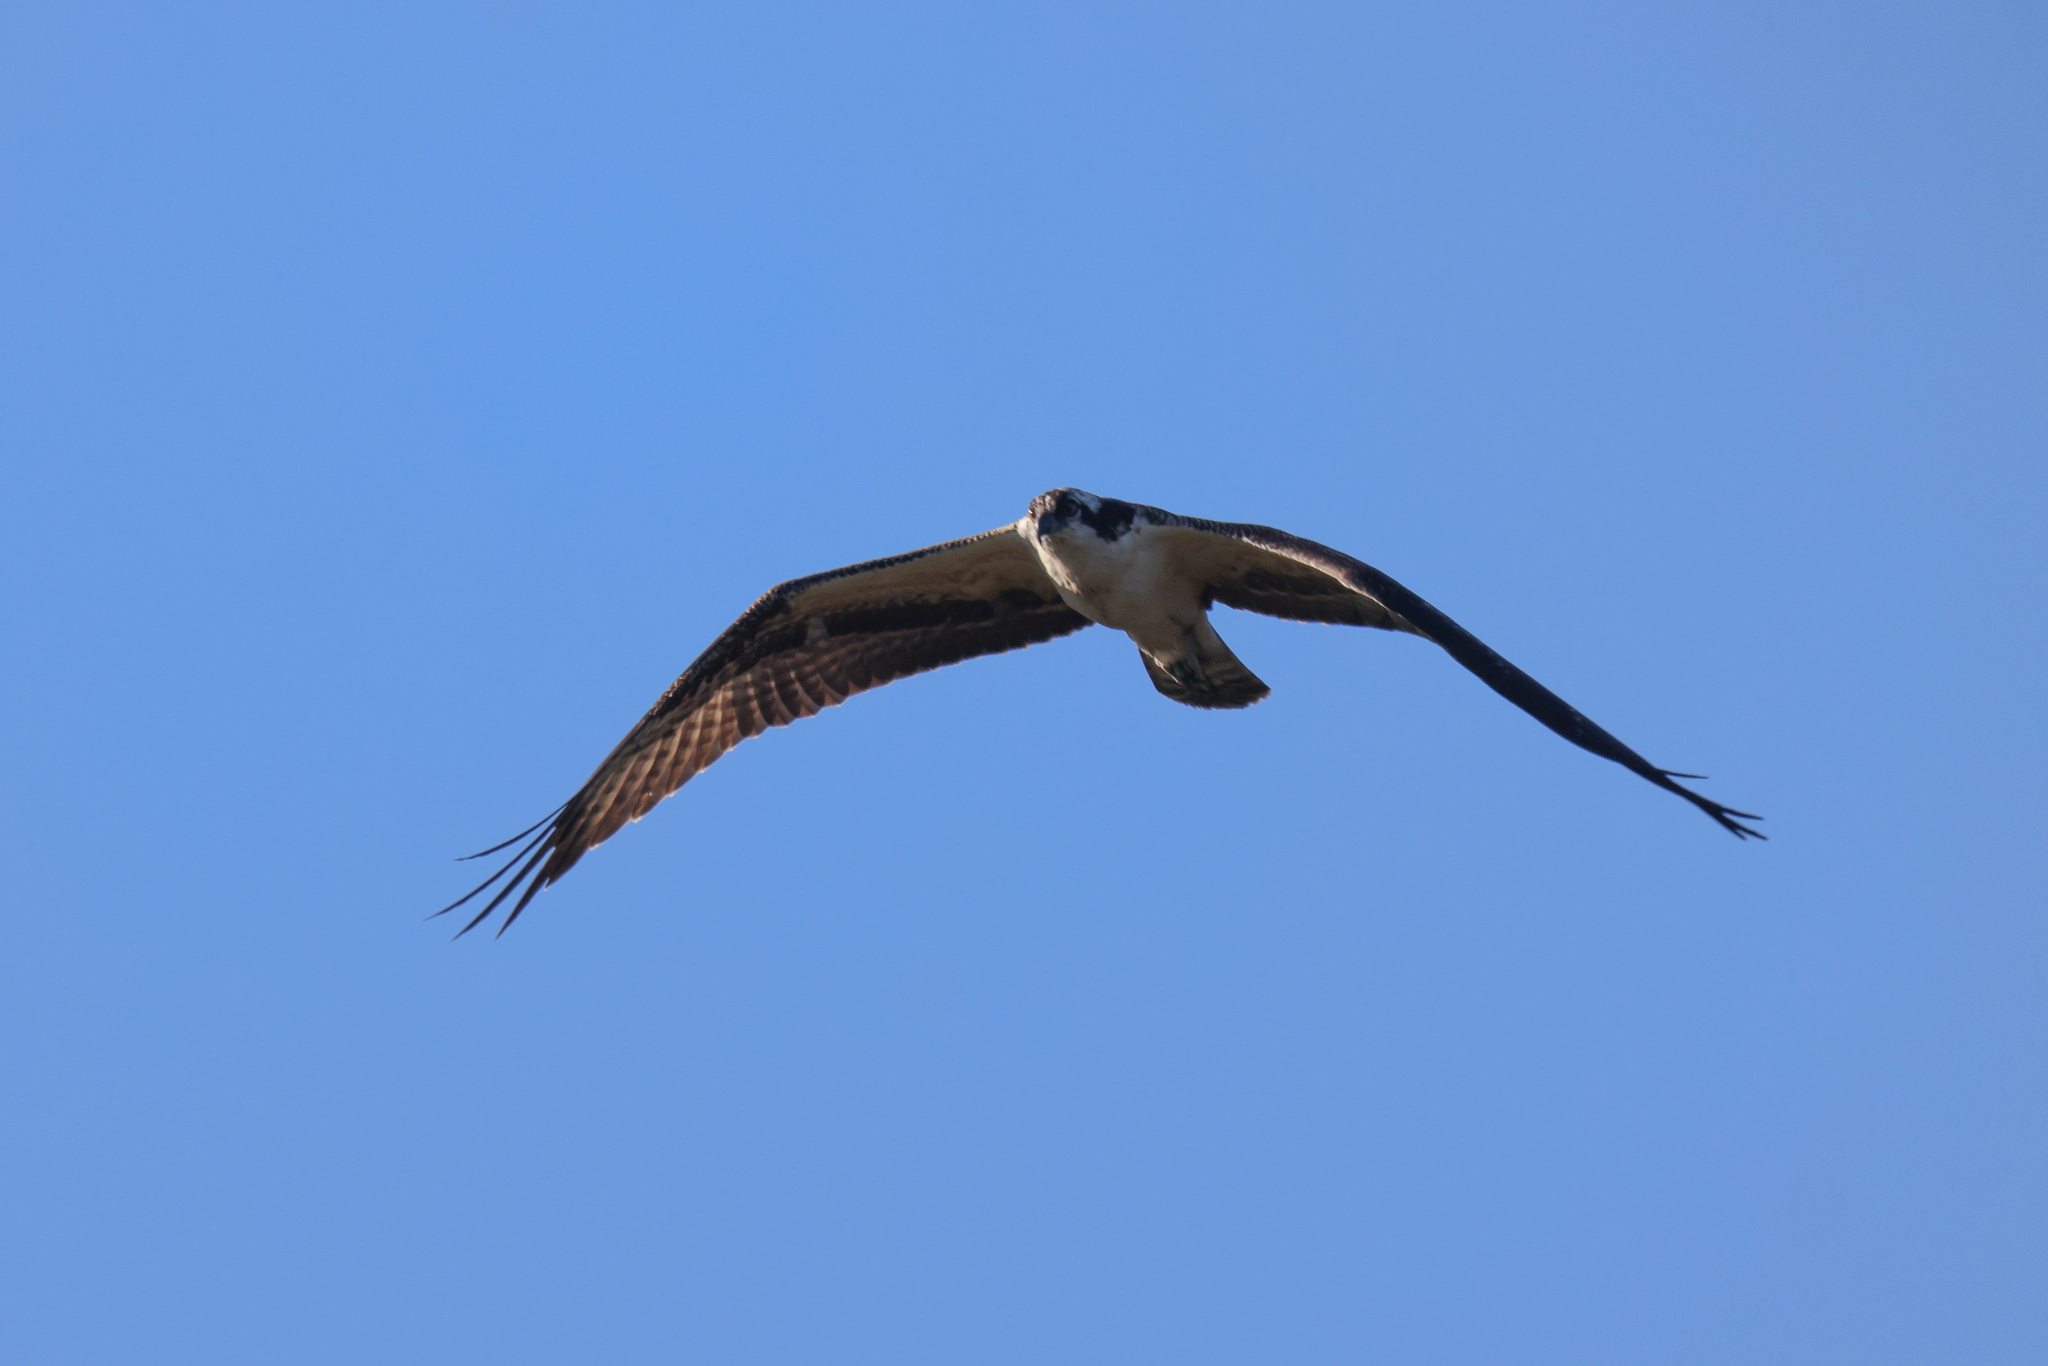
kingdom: Animalia
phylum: Chordata
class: Aves
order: Accipitriformes
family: Pandionidae
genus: Pandion
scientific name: Pandion haliaetus
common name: Osprey
